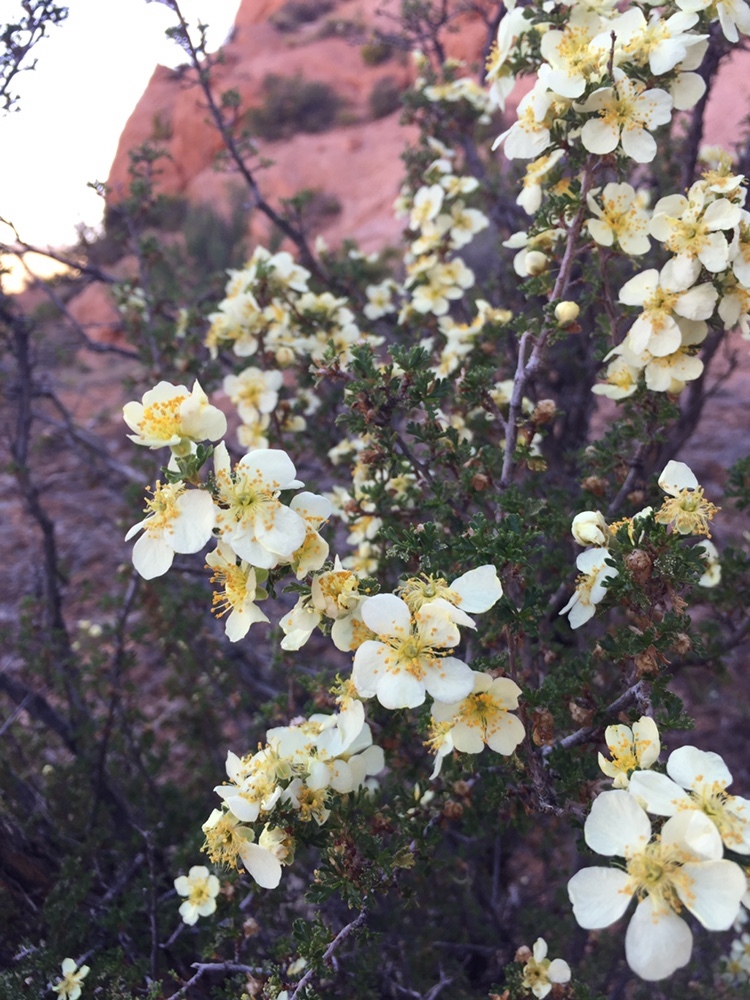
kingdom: Plantae
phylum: Tracheophyta
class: Magnoliopsida
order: Rosales
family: Rosaceae
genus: Purshia
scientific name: Purshia stansburiana
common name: Stansbury's cliffrose
